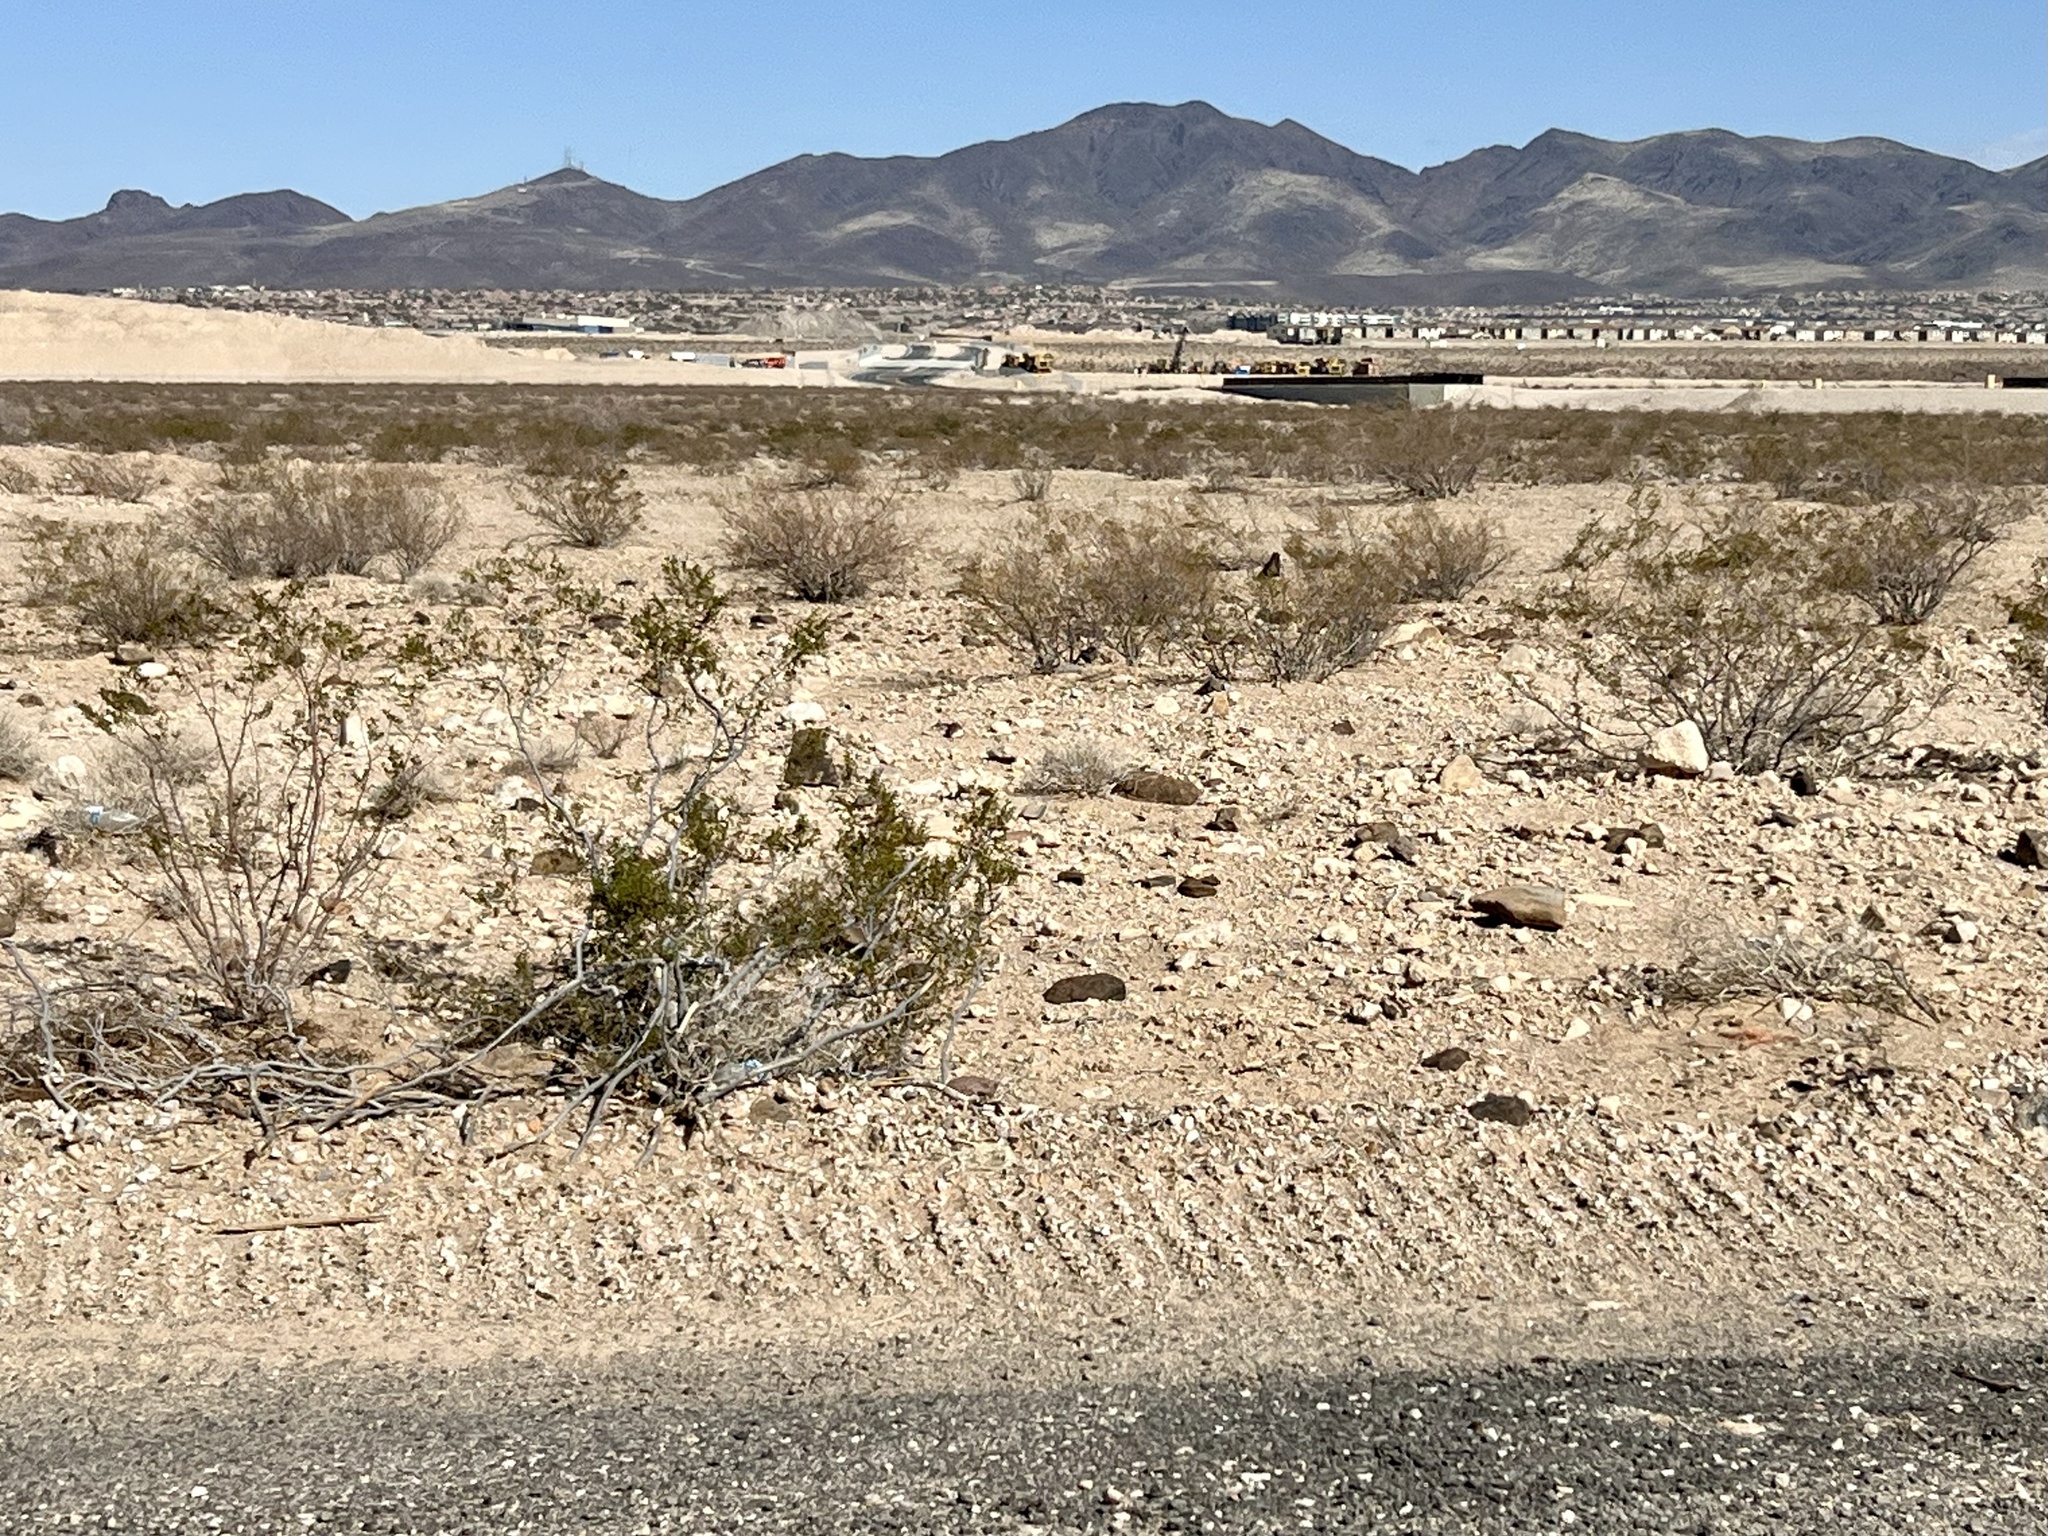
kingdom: Plantae
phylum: Tracheophyta
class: Magnoliopsida
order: Zygophyllales
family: Zygophyllaceae
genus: Larrea
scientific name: Larrea tridentata
